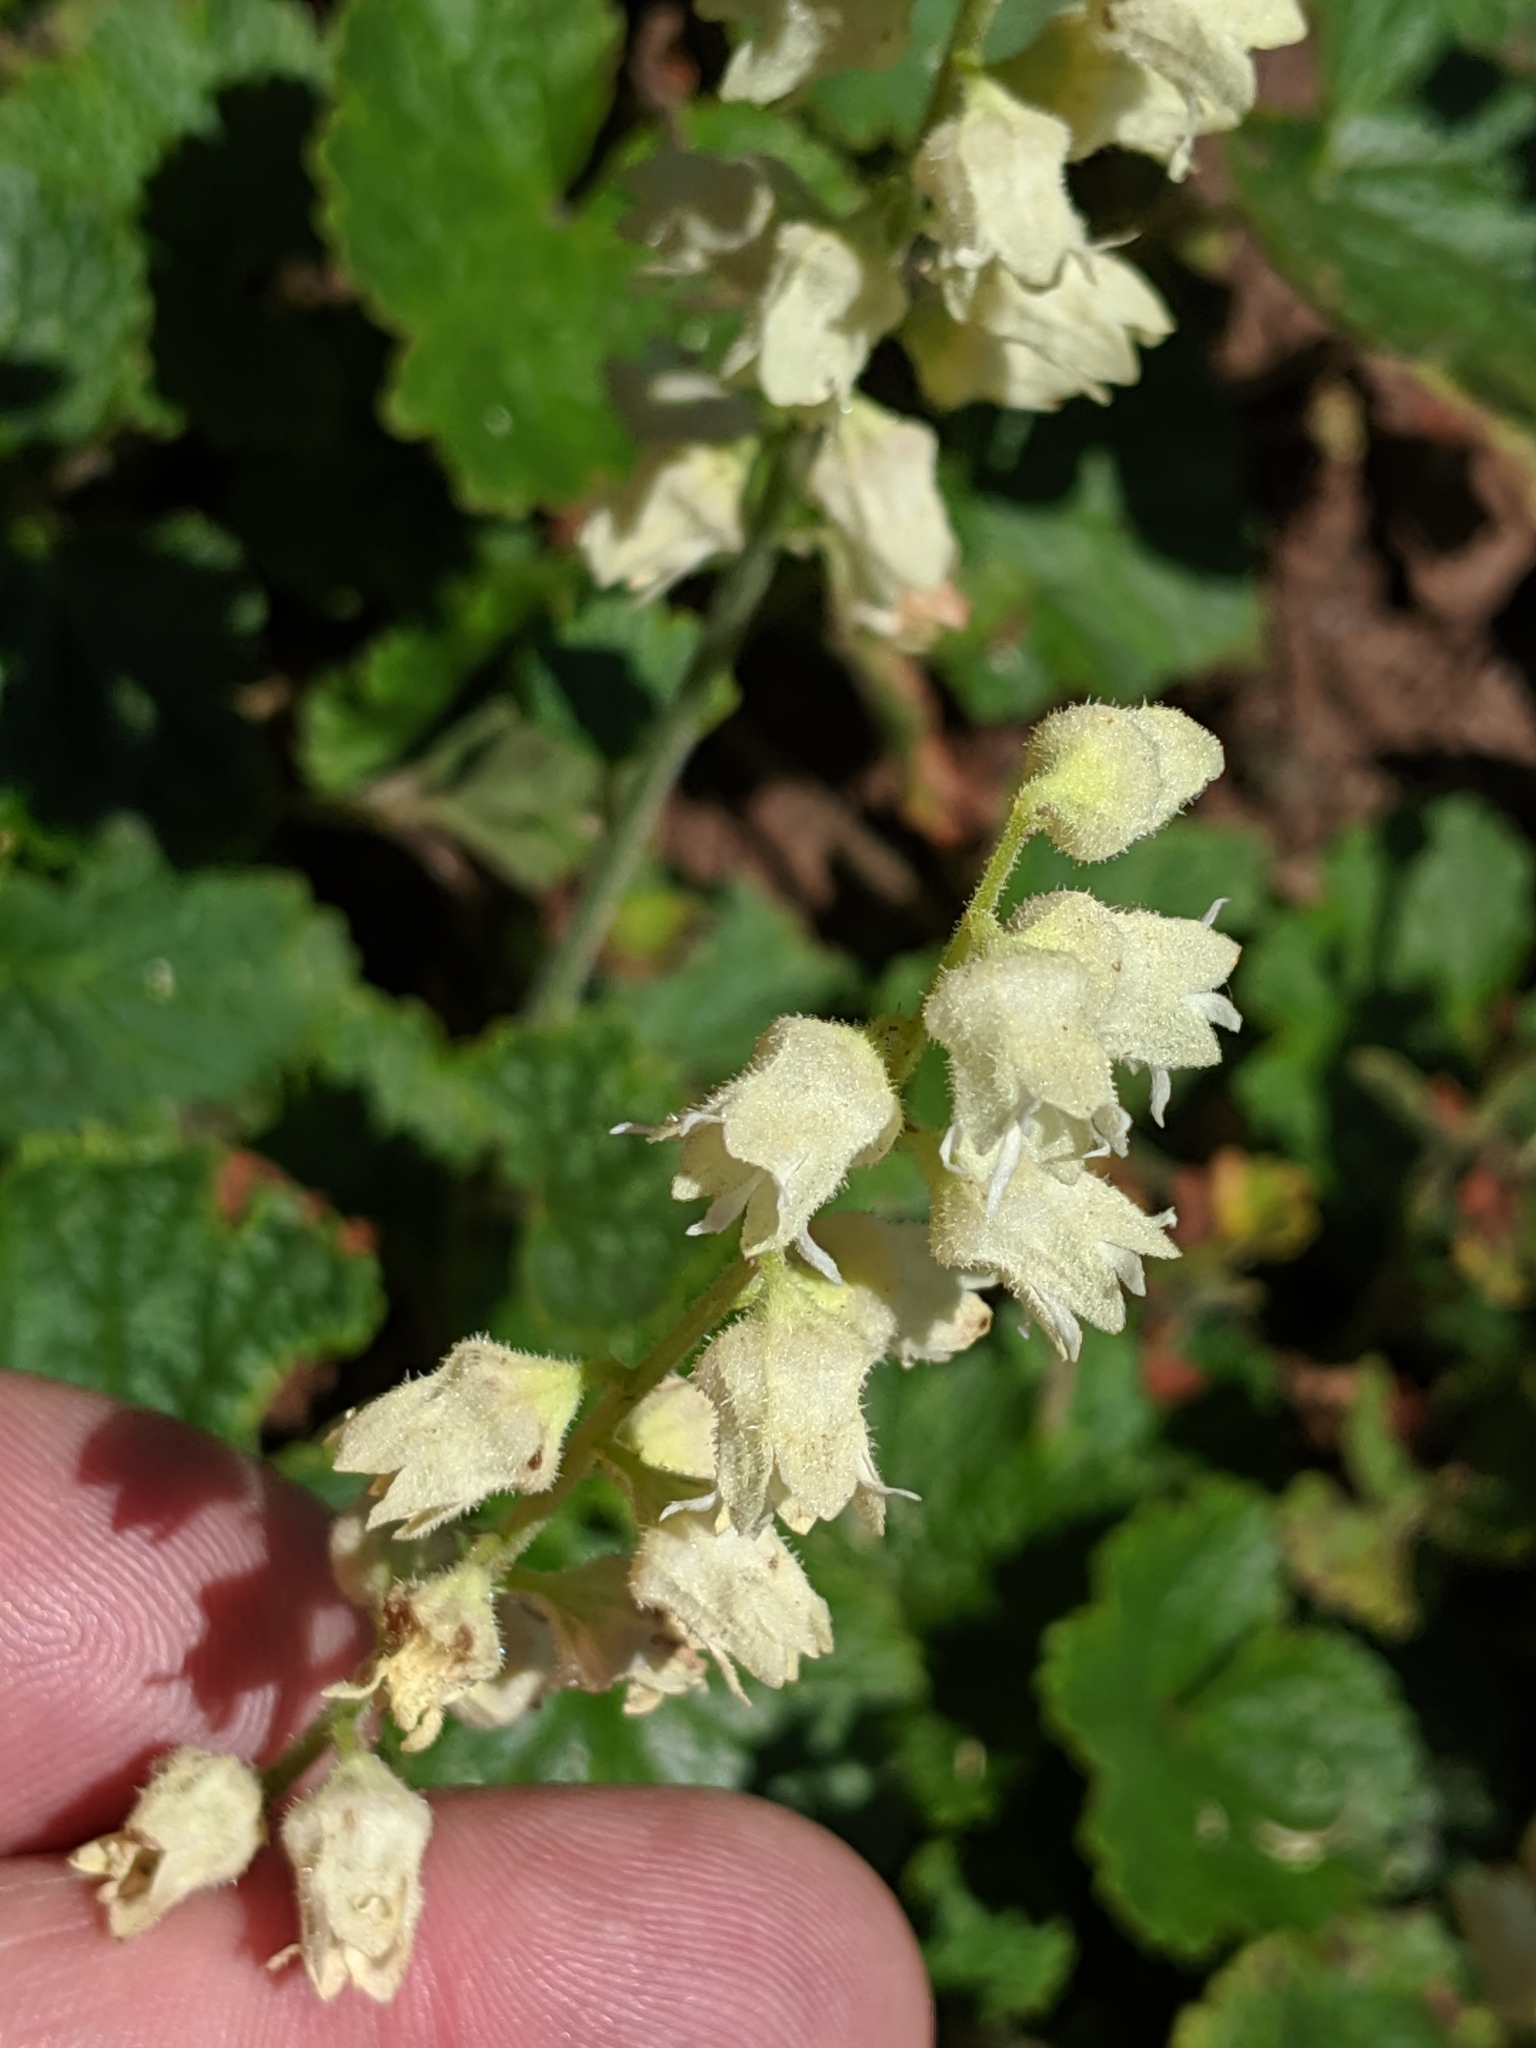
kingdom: Plantae
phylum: Tracheophyta
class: Magnoliopsida
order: Saxifragales
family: Saxifragaceae
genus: Elmera
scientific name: Elmera racemosa
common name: Elmera
